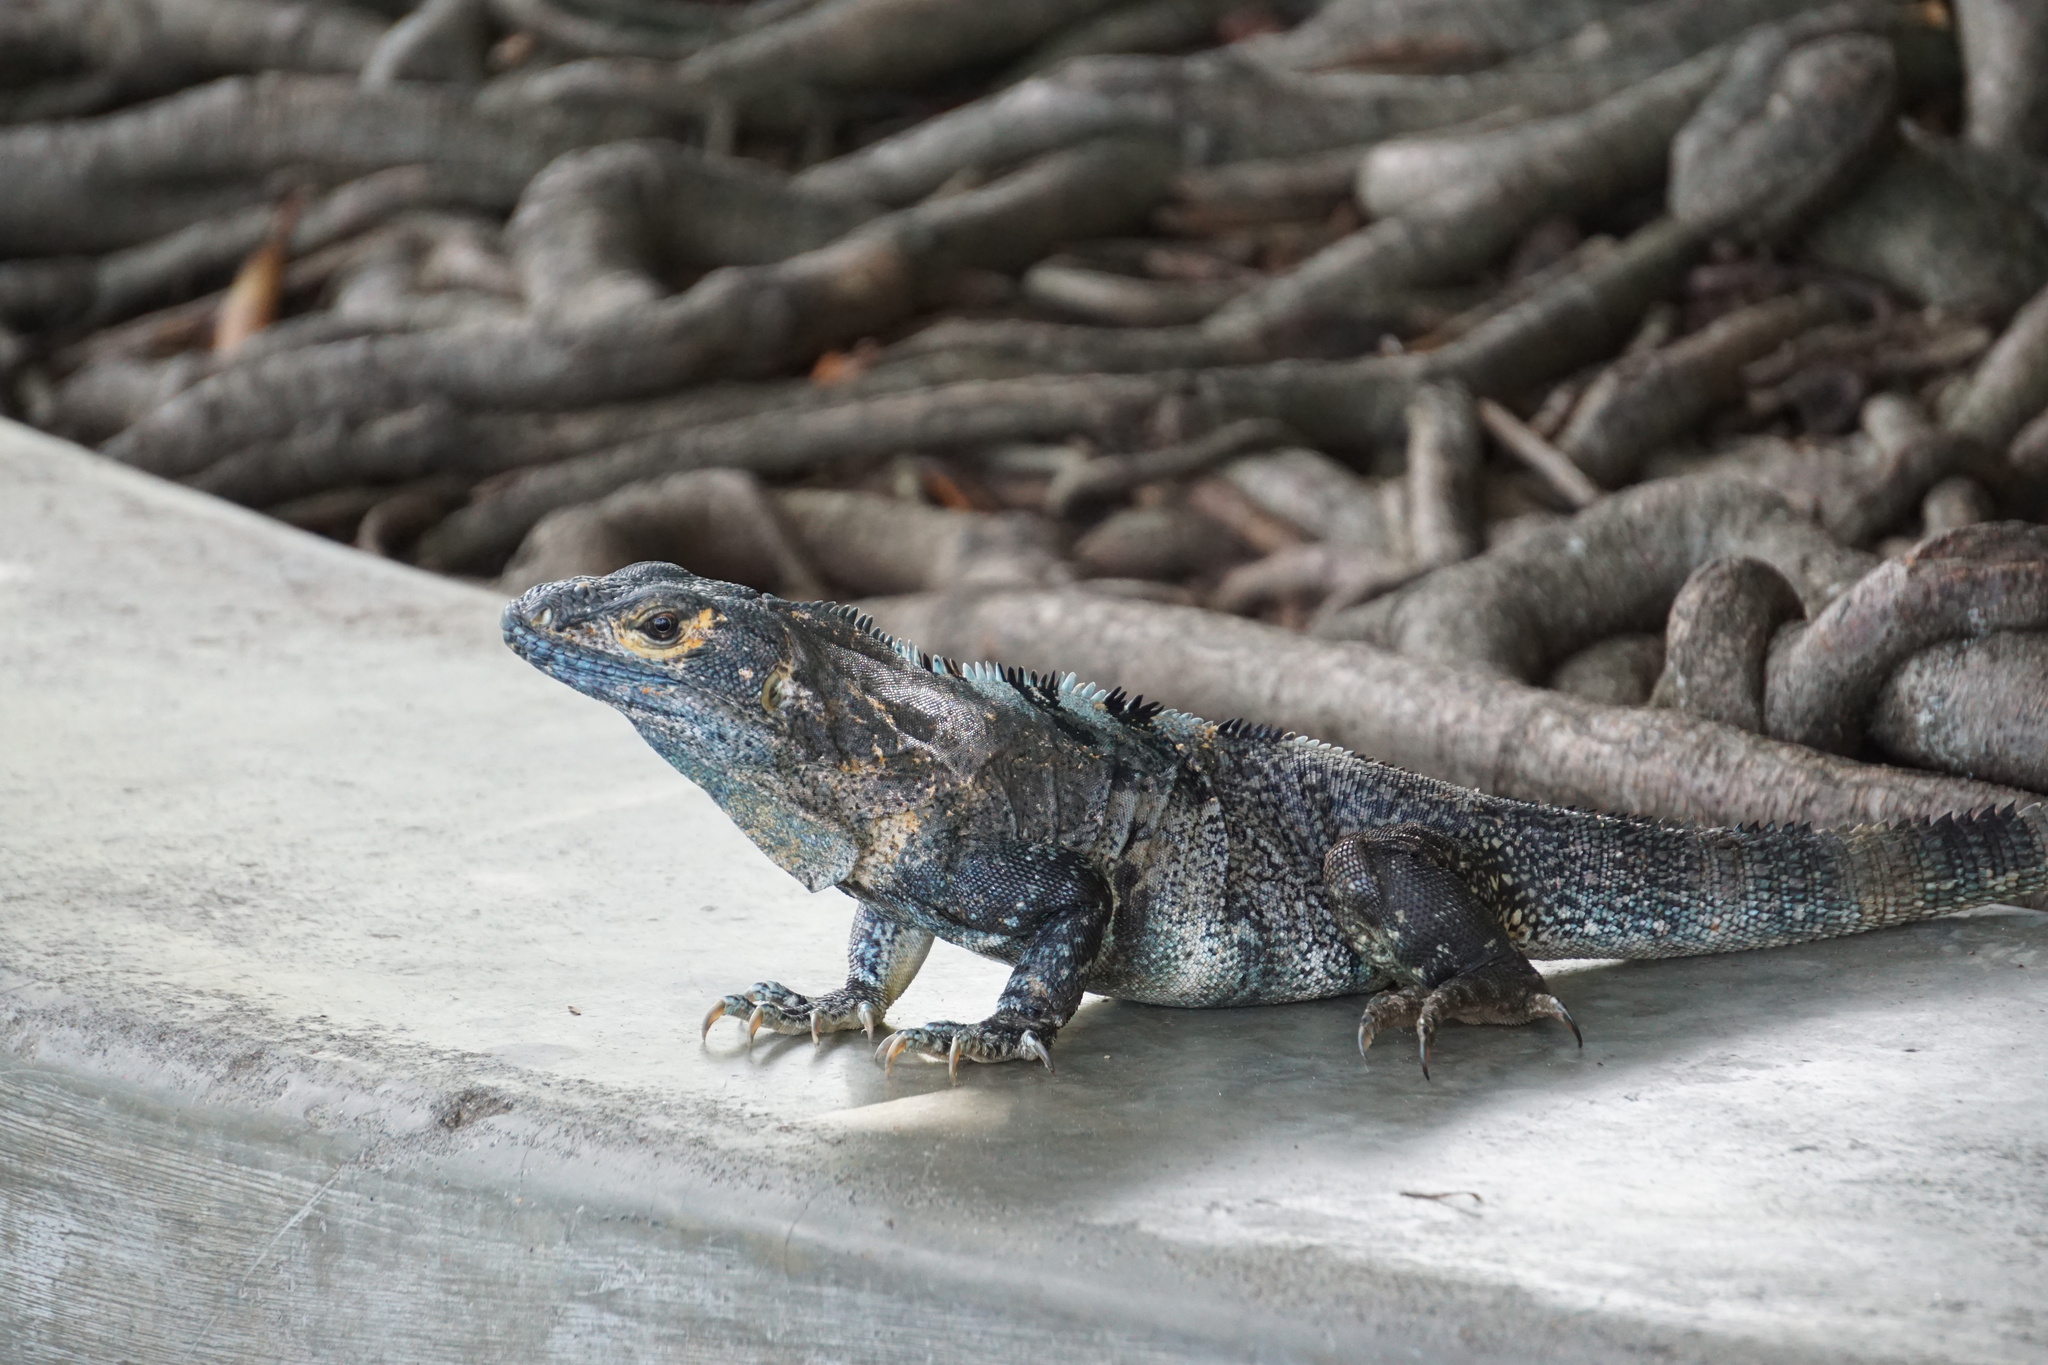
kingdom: Animalia
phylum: Chordata
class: Squamata
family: Iguanidae
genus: Ctenosaura
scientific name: Ctenosaura similis
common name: Black spiny-tailed iguana
